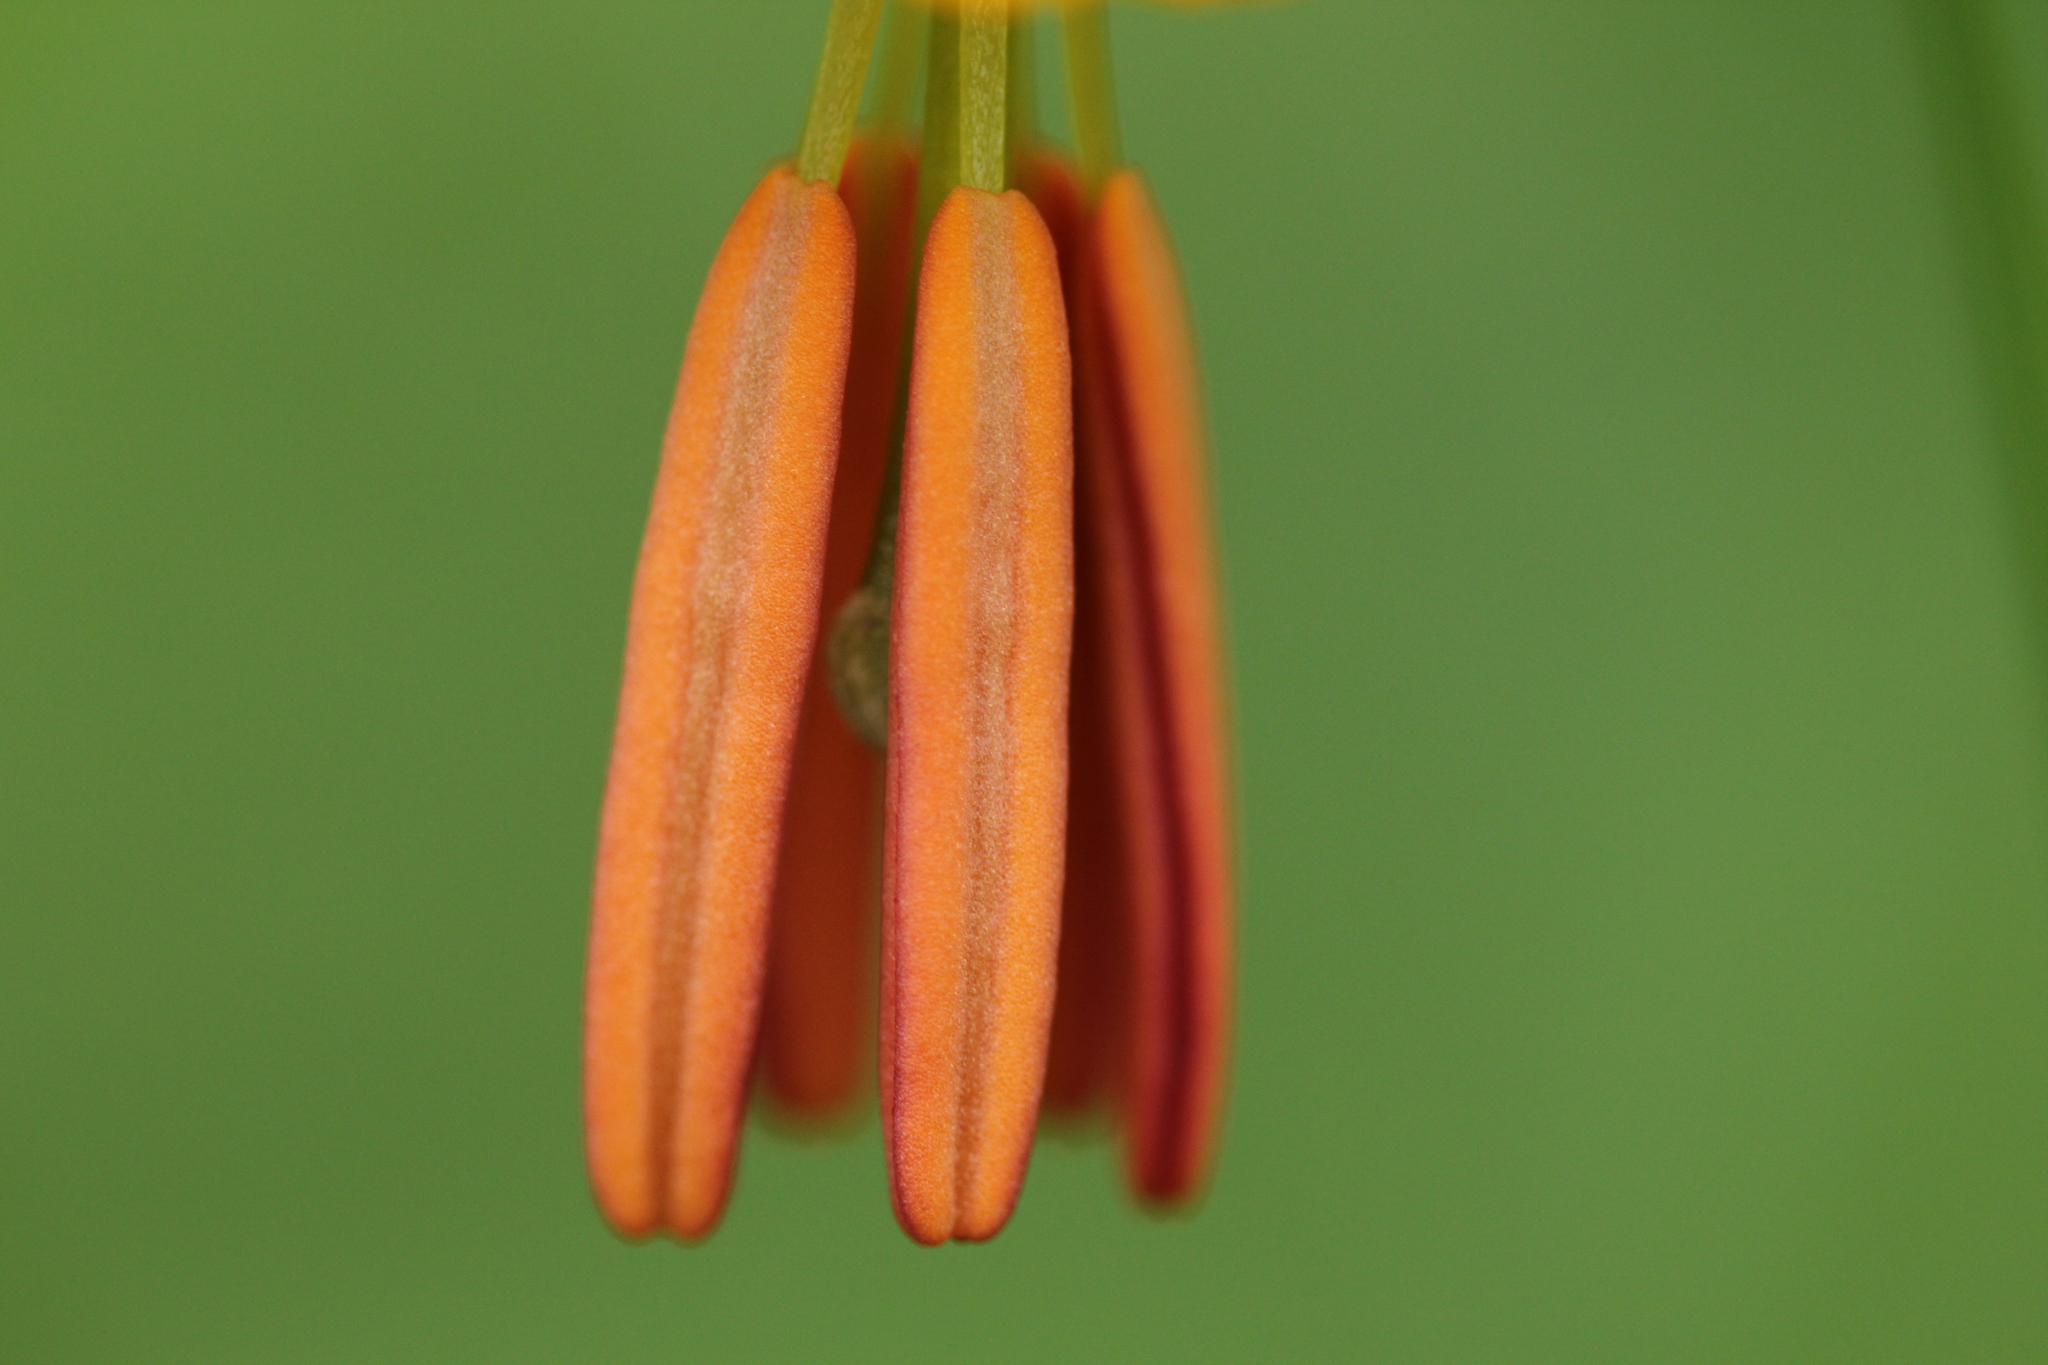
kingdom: Plantae
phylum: Tracheophyta
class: Liliopsida
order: Liliales
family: Liliaceae
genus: Lilium
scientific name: Lilium columbianum
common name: Columbia lily
